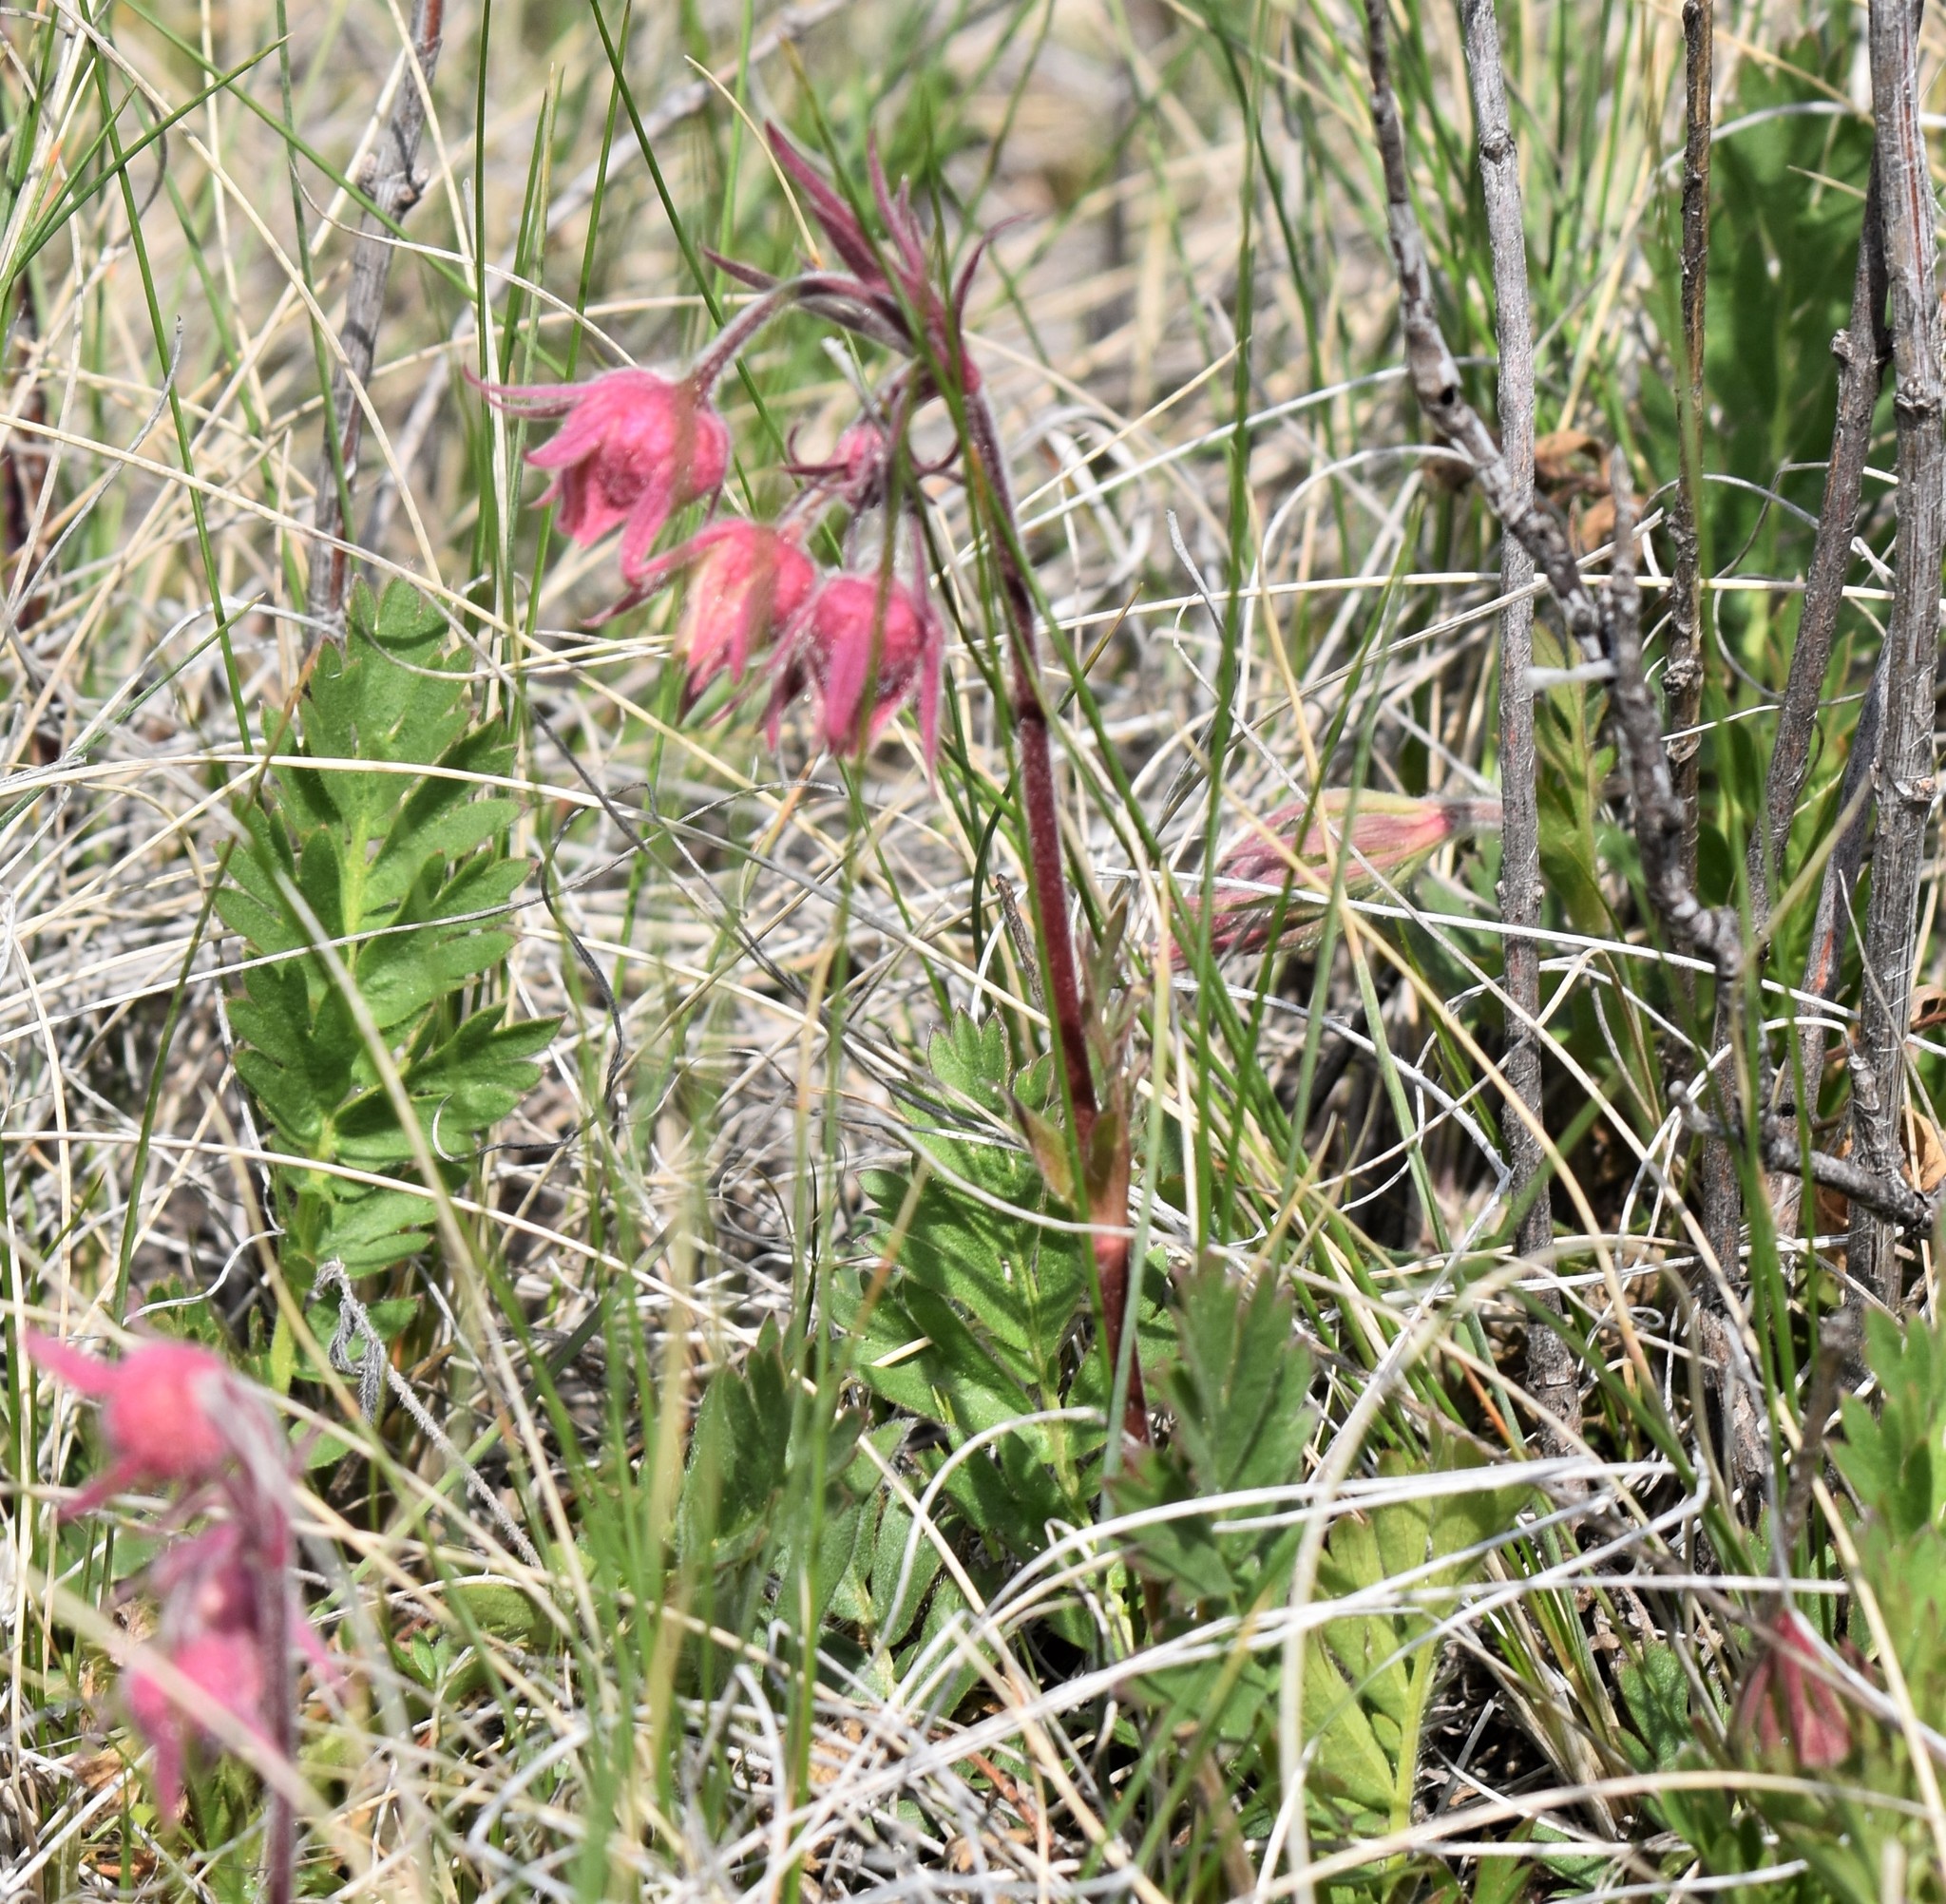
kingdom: Plantae
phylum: Tracheophyta
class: Magnoliopsida
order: Rosales
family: Rosaceae
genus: Geum
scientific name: Geum triflorum
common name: Old man's whiskers
